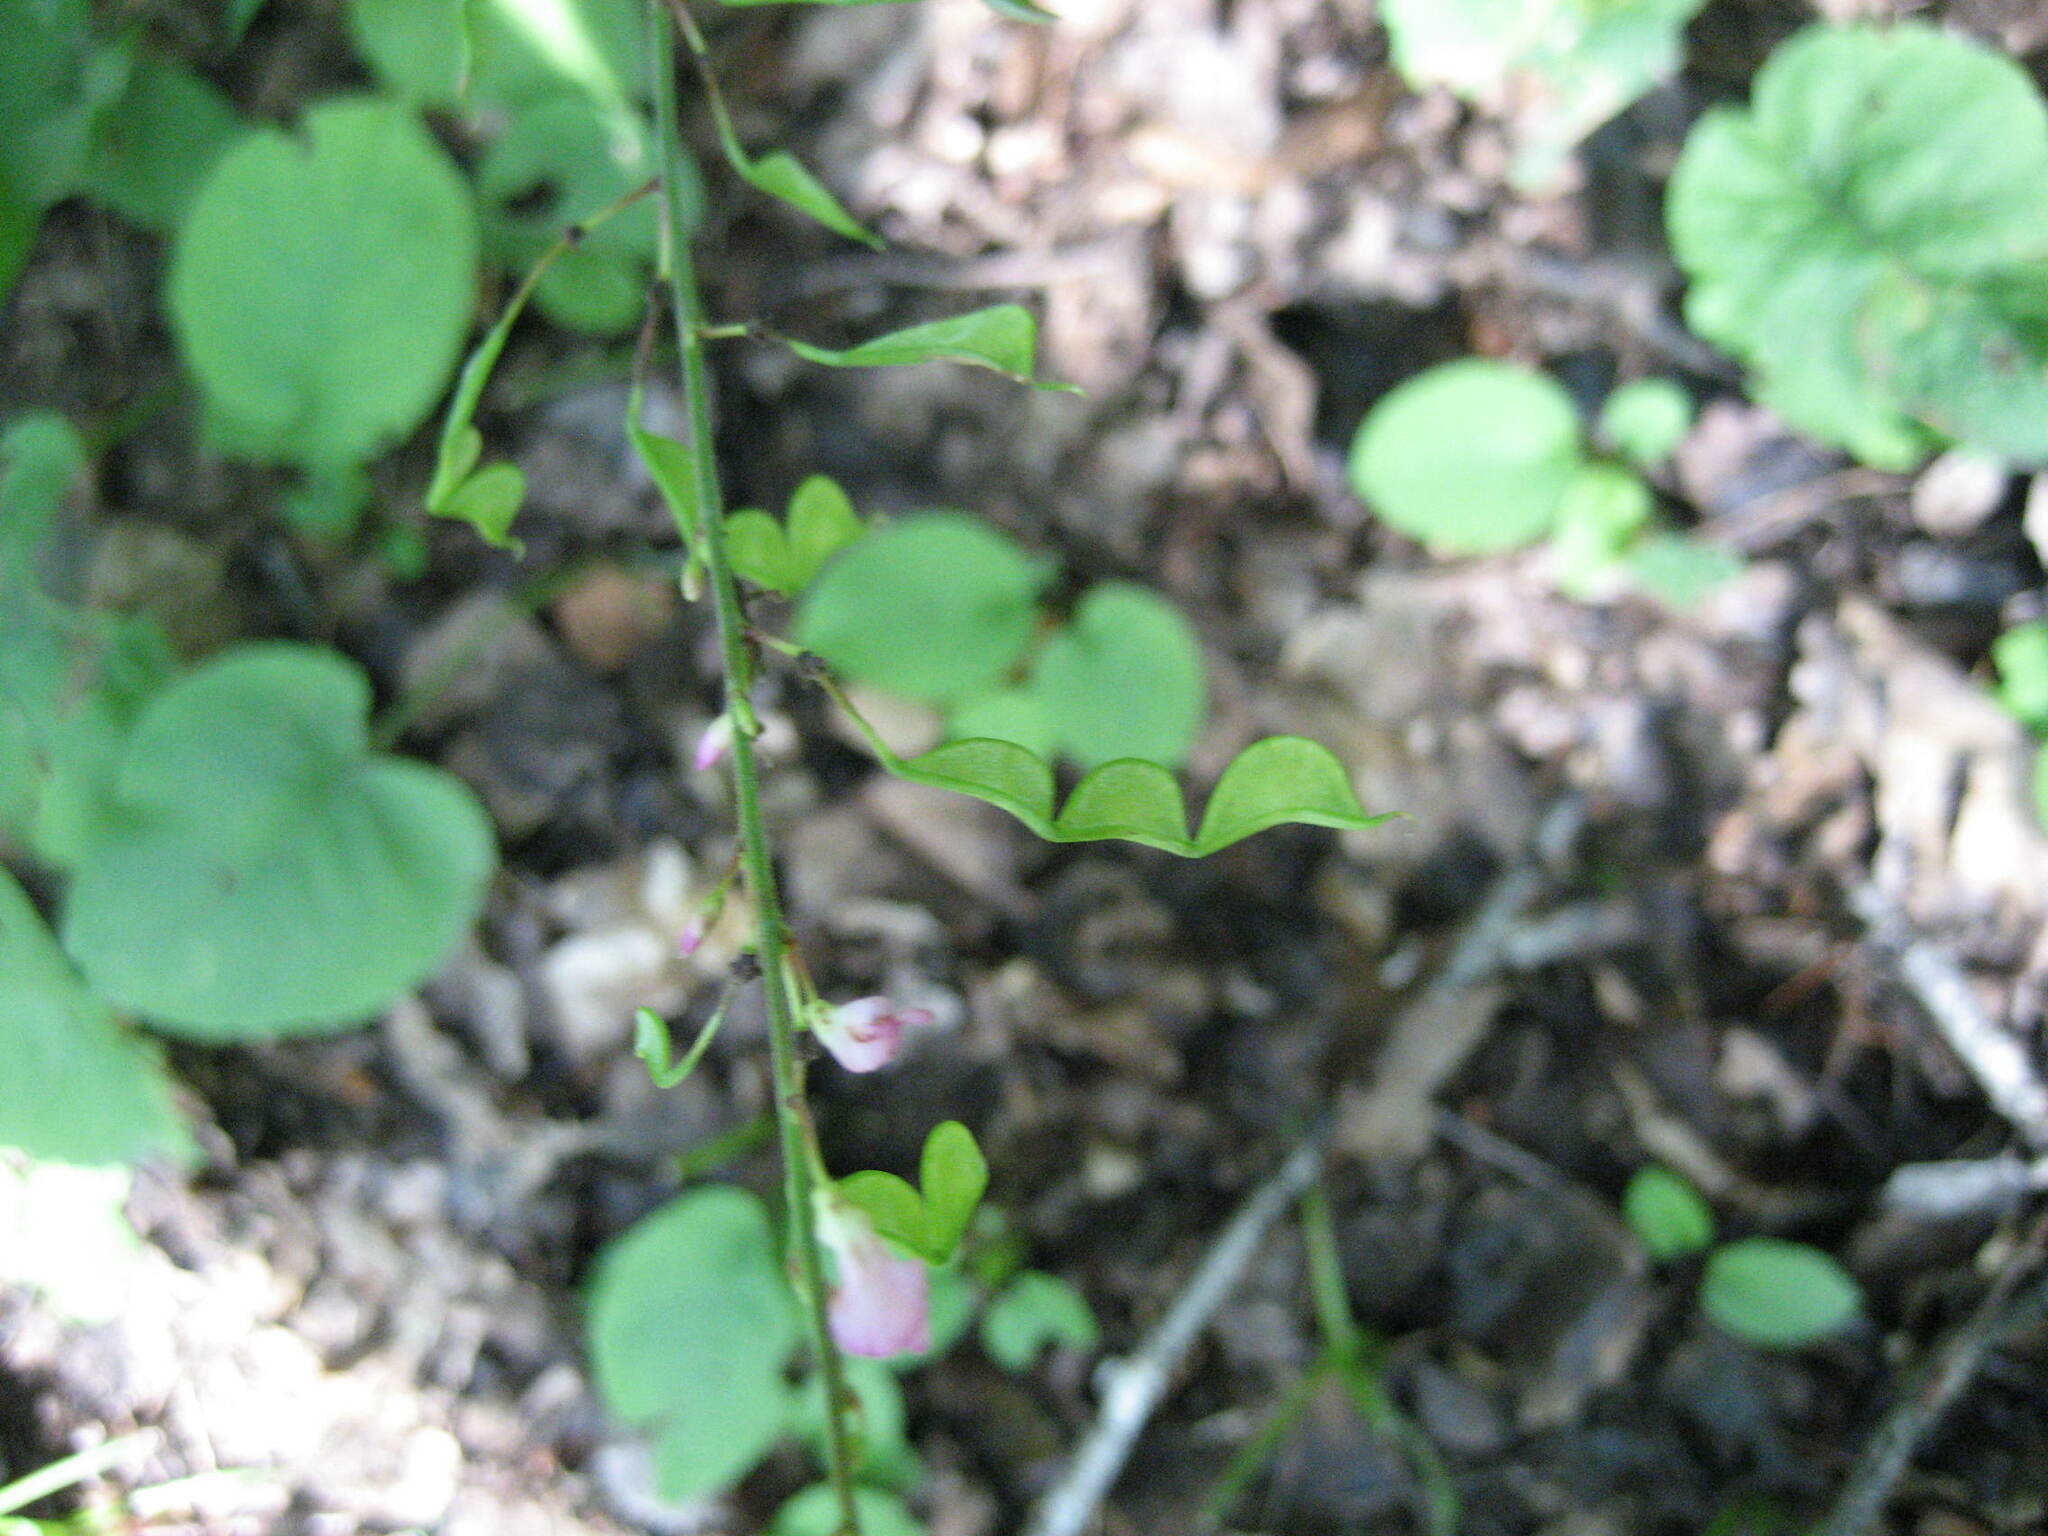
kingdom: Plantae
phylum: Tracheophyta
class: Magnoliopsida
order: Fabales
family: Fabaceae
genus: Hylodesmum
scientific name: Hylodesmum glutinosum
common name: Clustered-leaved tick-trefoil
